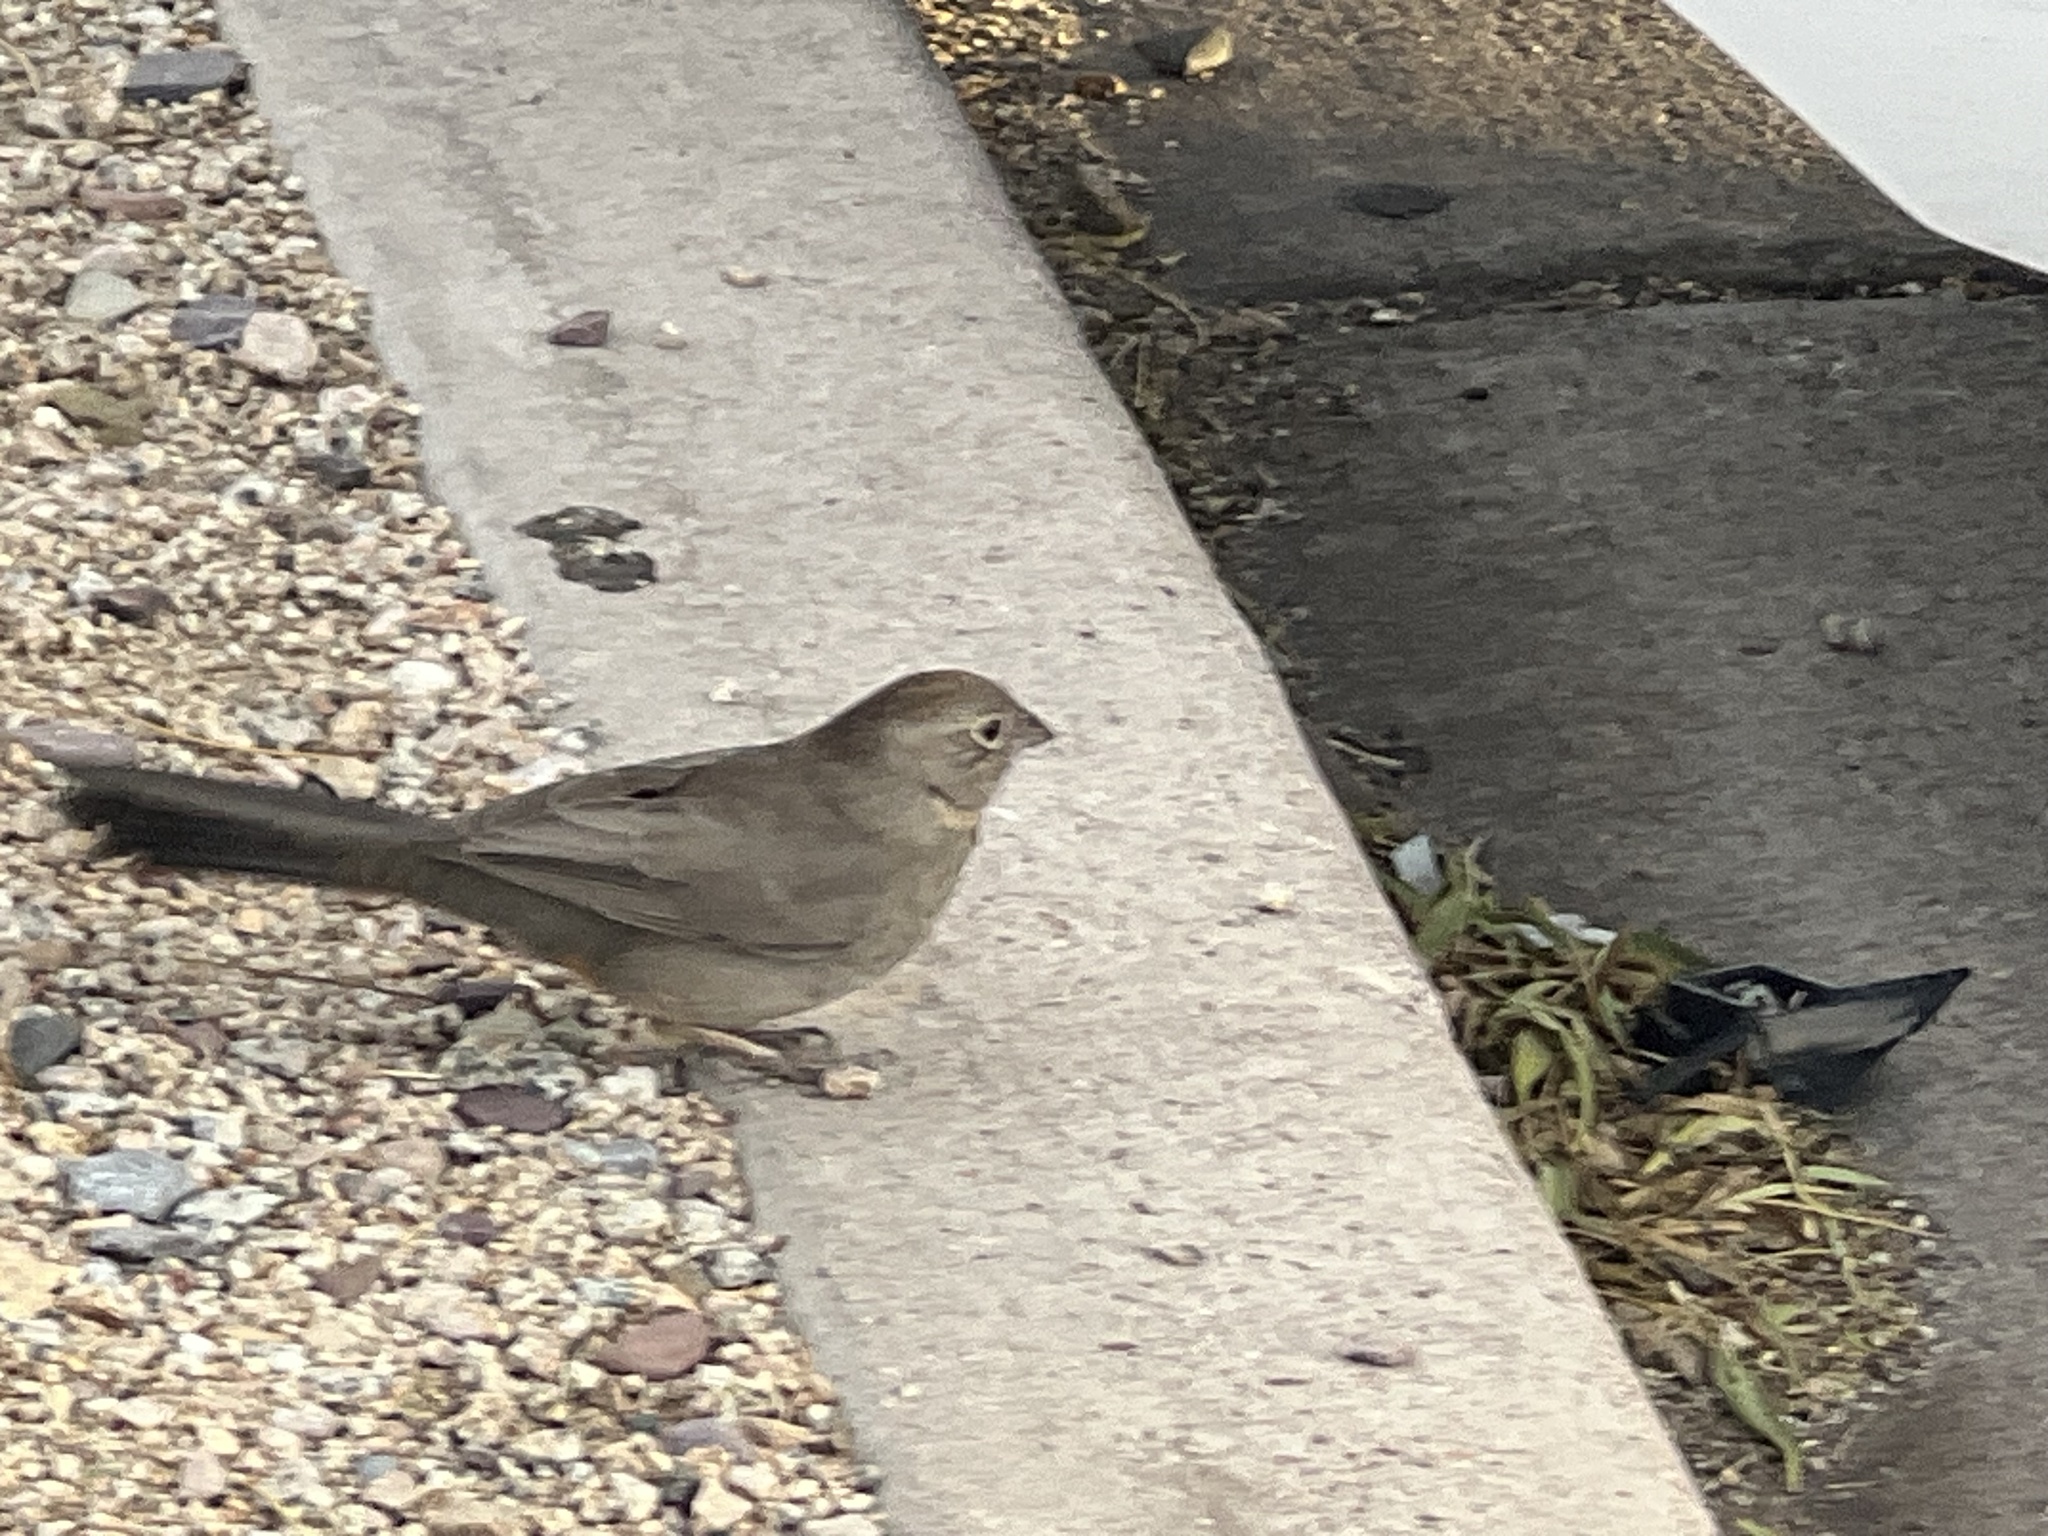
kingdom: Animalia
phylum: Chordata
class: Aves
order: Passeriformes
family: Passerellidae
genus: Melozone
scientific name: Melozone fusca
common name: Canyon towhee
